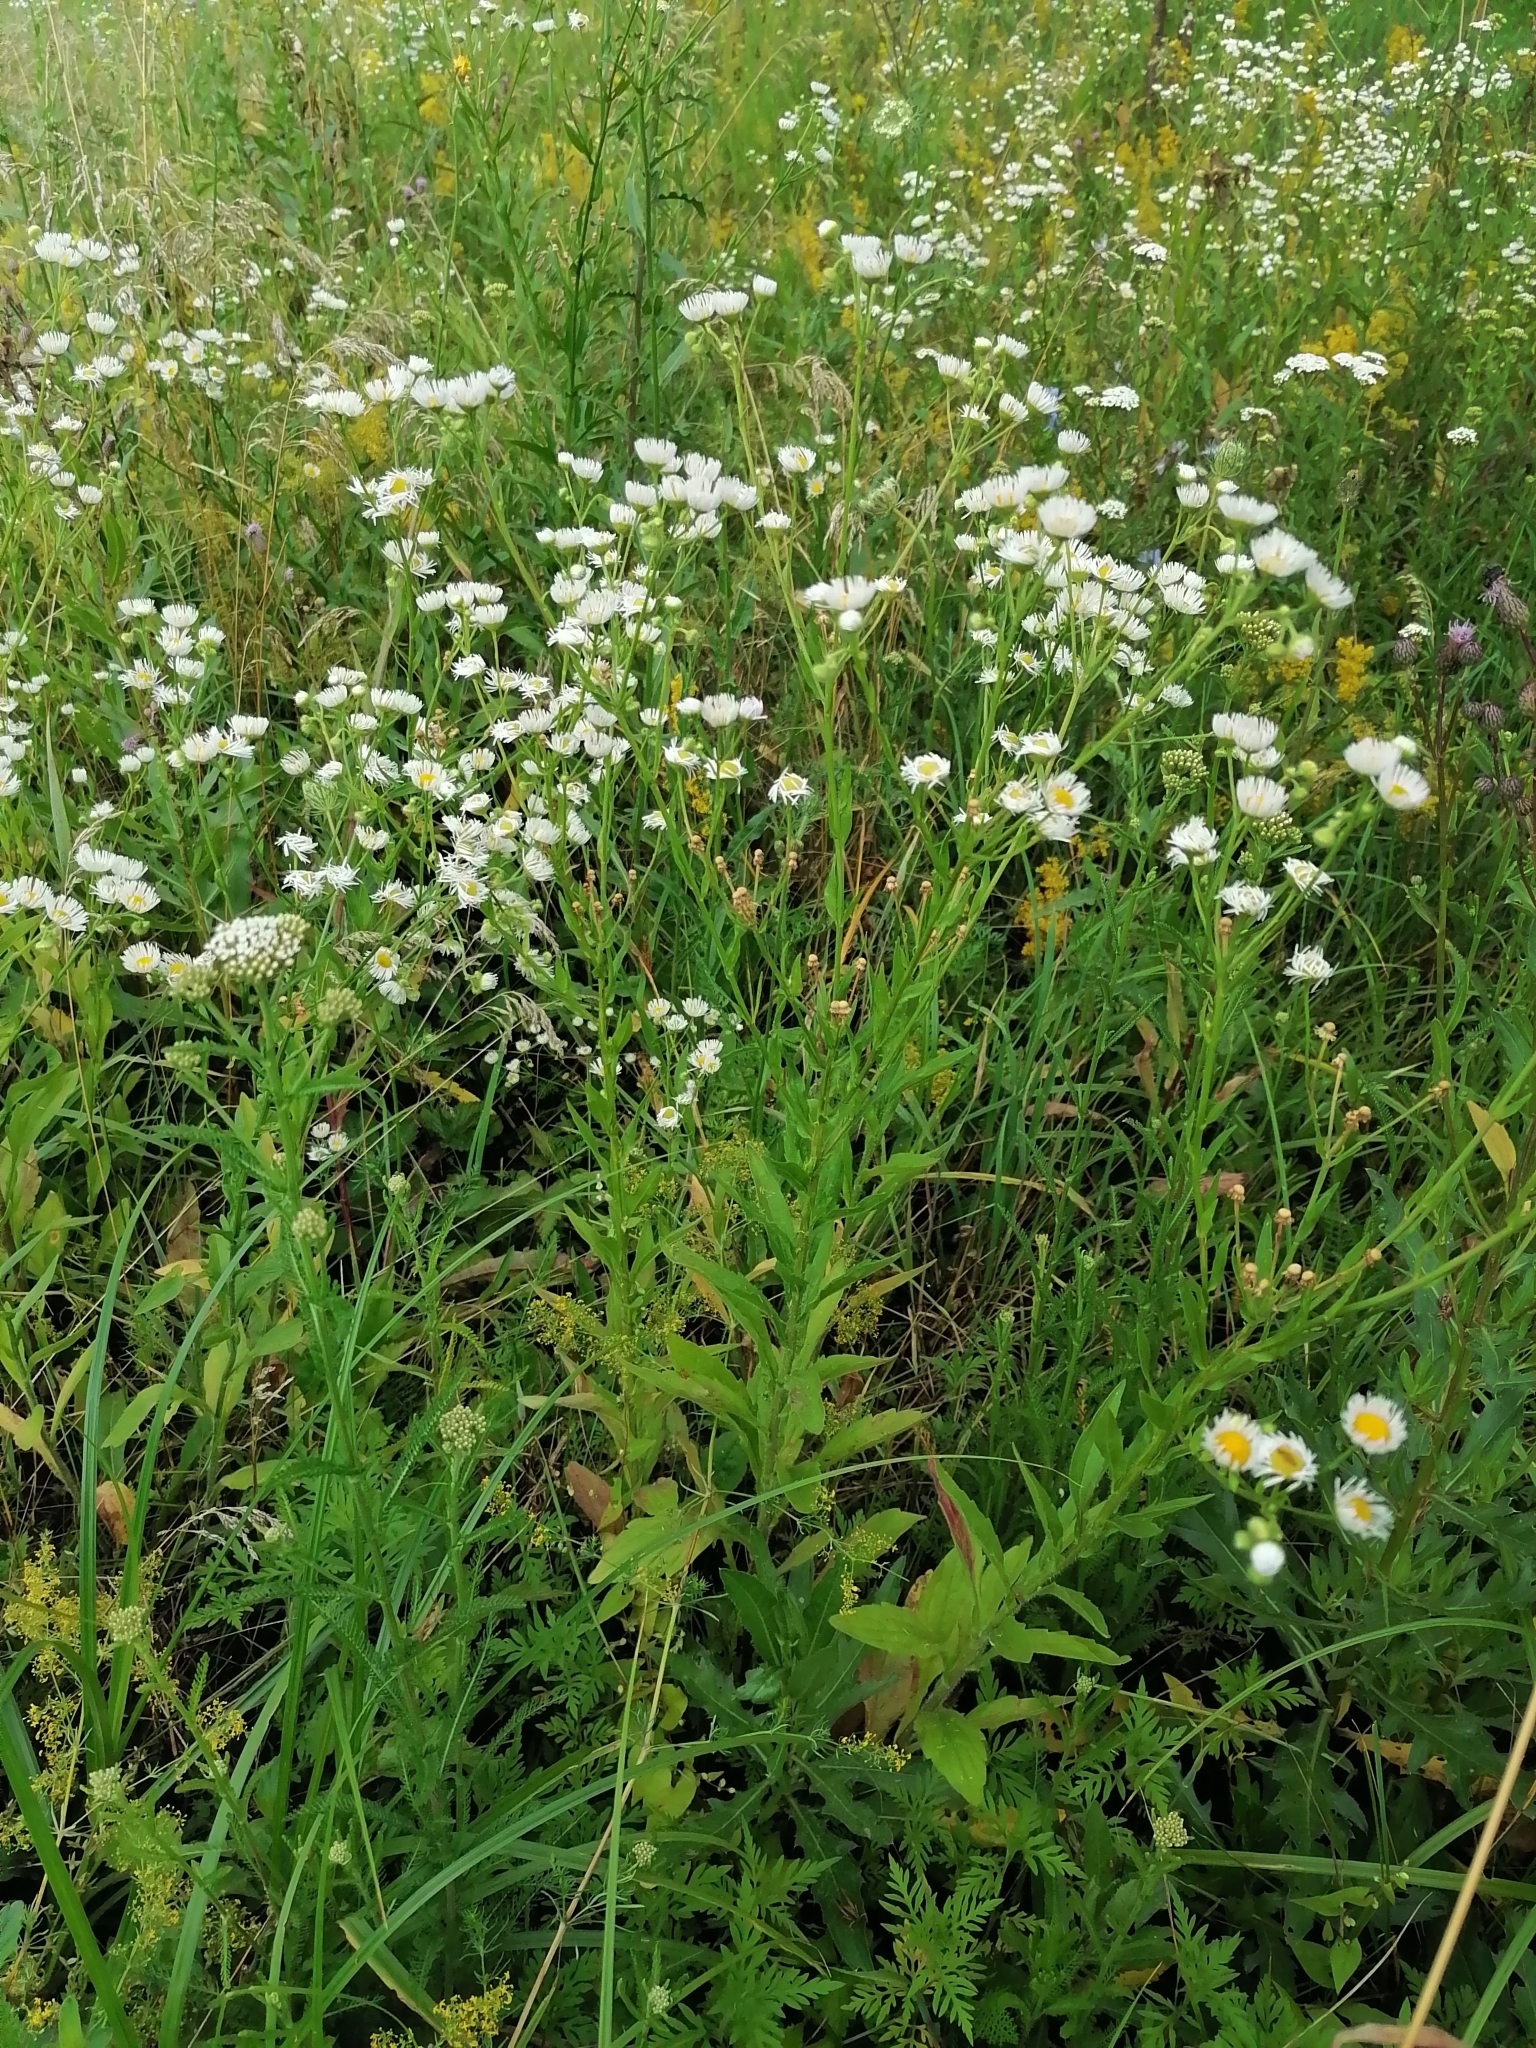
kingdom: Plantae
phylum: Tracheophyta
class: Magnoliopsida
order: Asterales
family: Asteraceae
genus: Erigeron
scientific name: Erigeron annuus
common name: Tall fleabane
